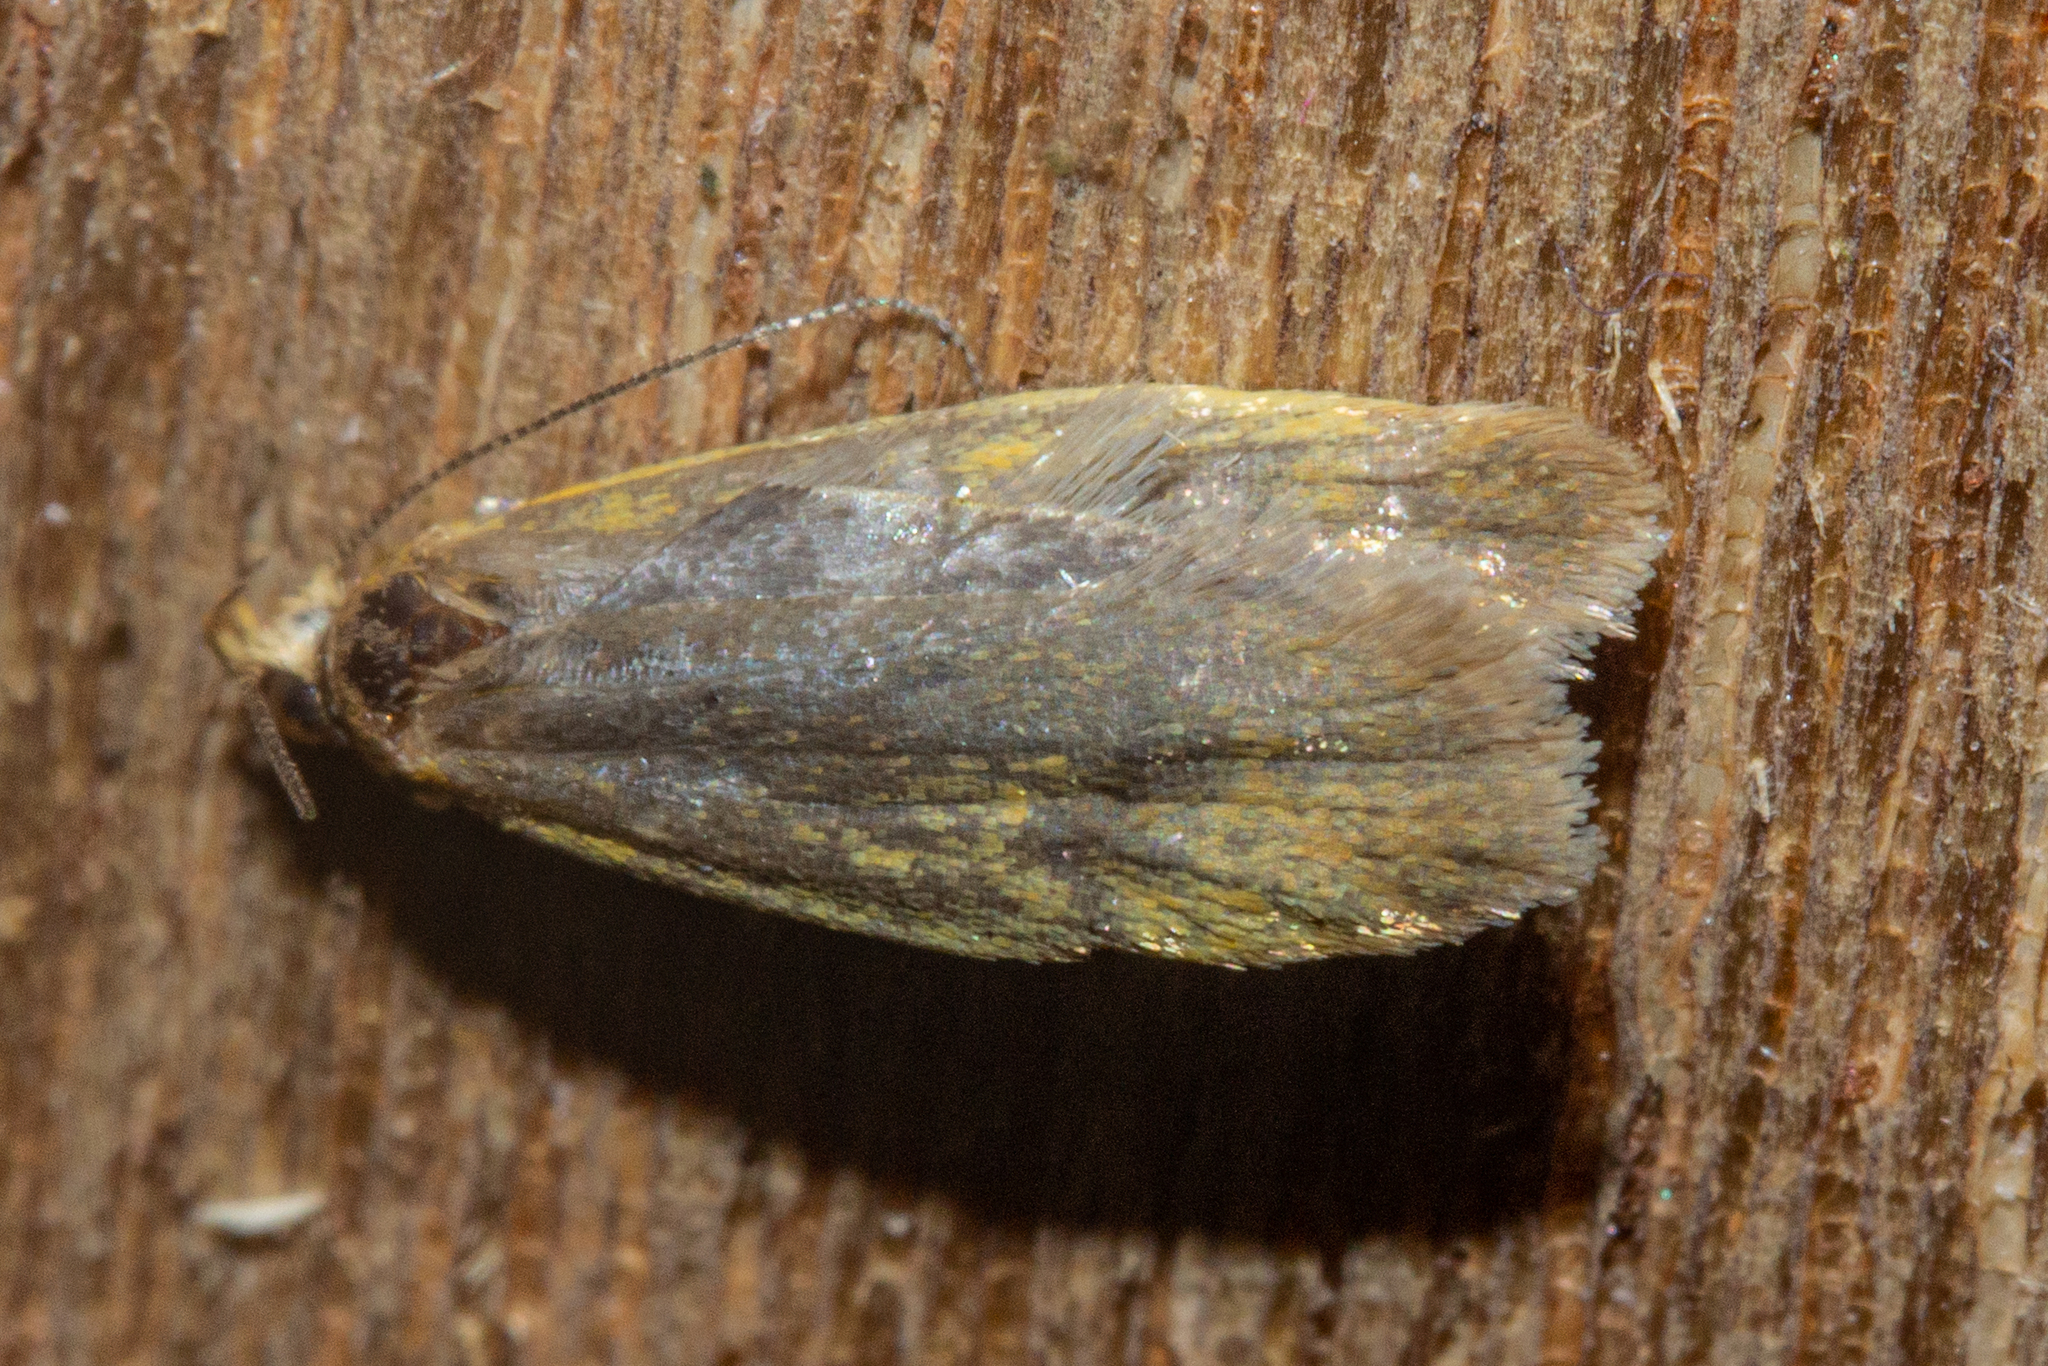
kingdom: Animalia
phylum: Arthropoda
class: Insecta
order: Lepidoptera
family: Oecophoridae
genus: Gymnobathra
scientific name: Gymnobathra sarcoxantha
